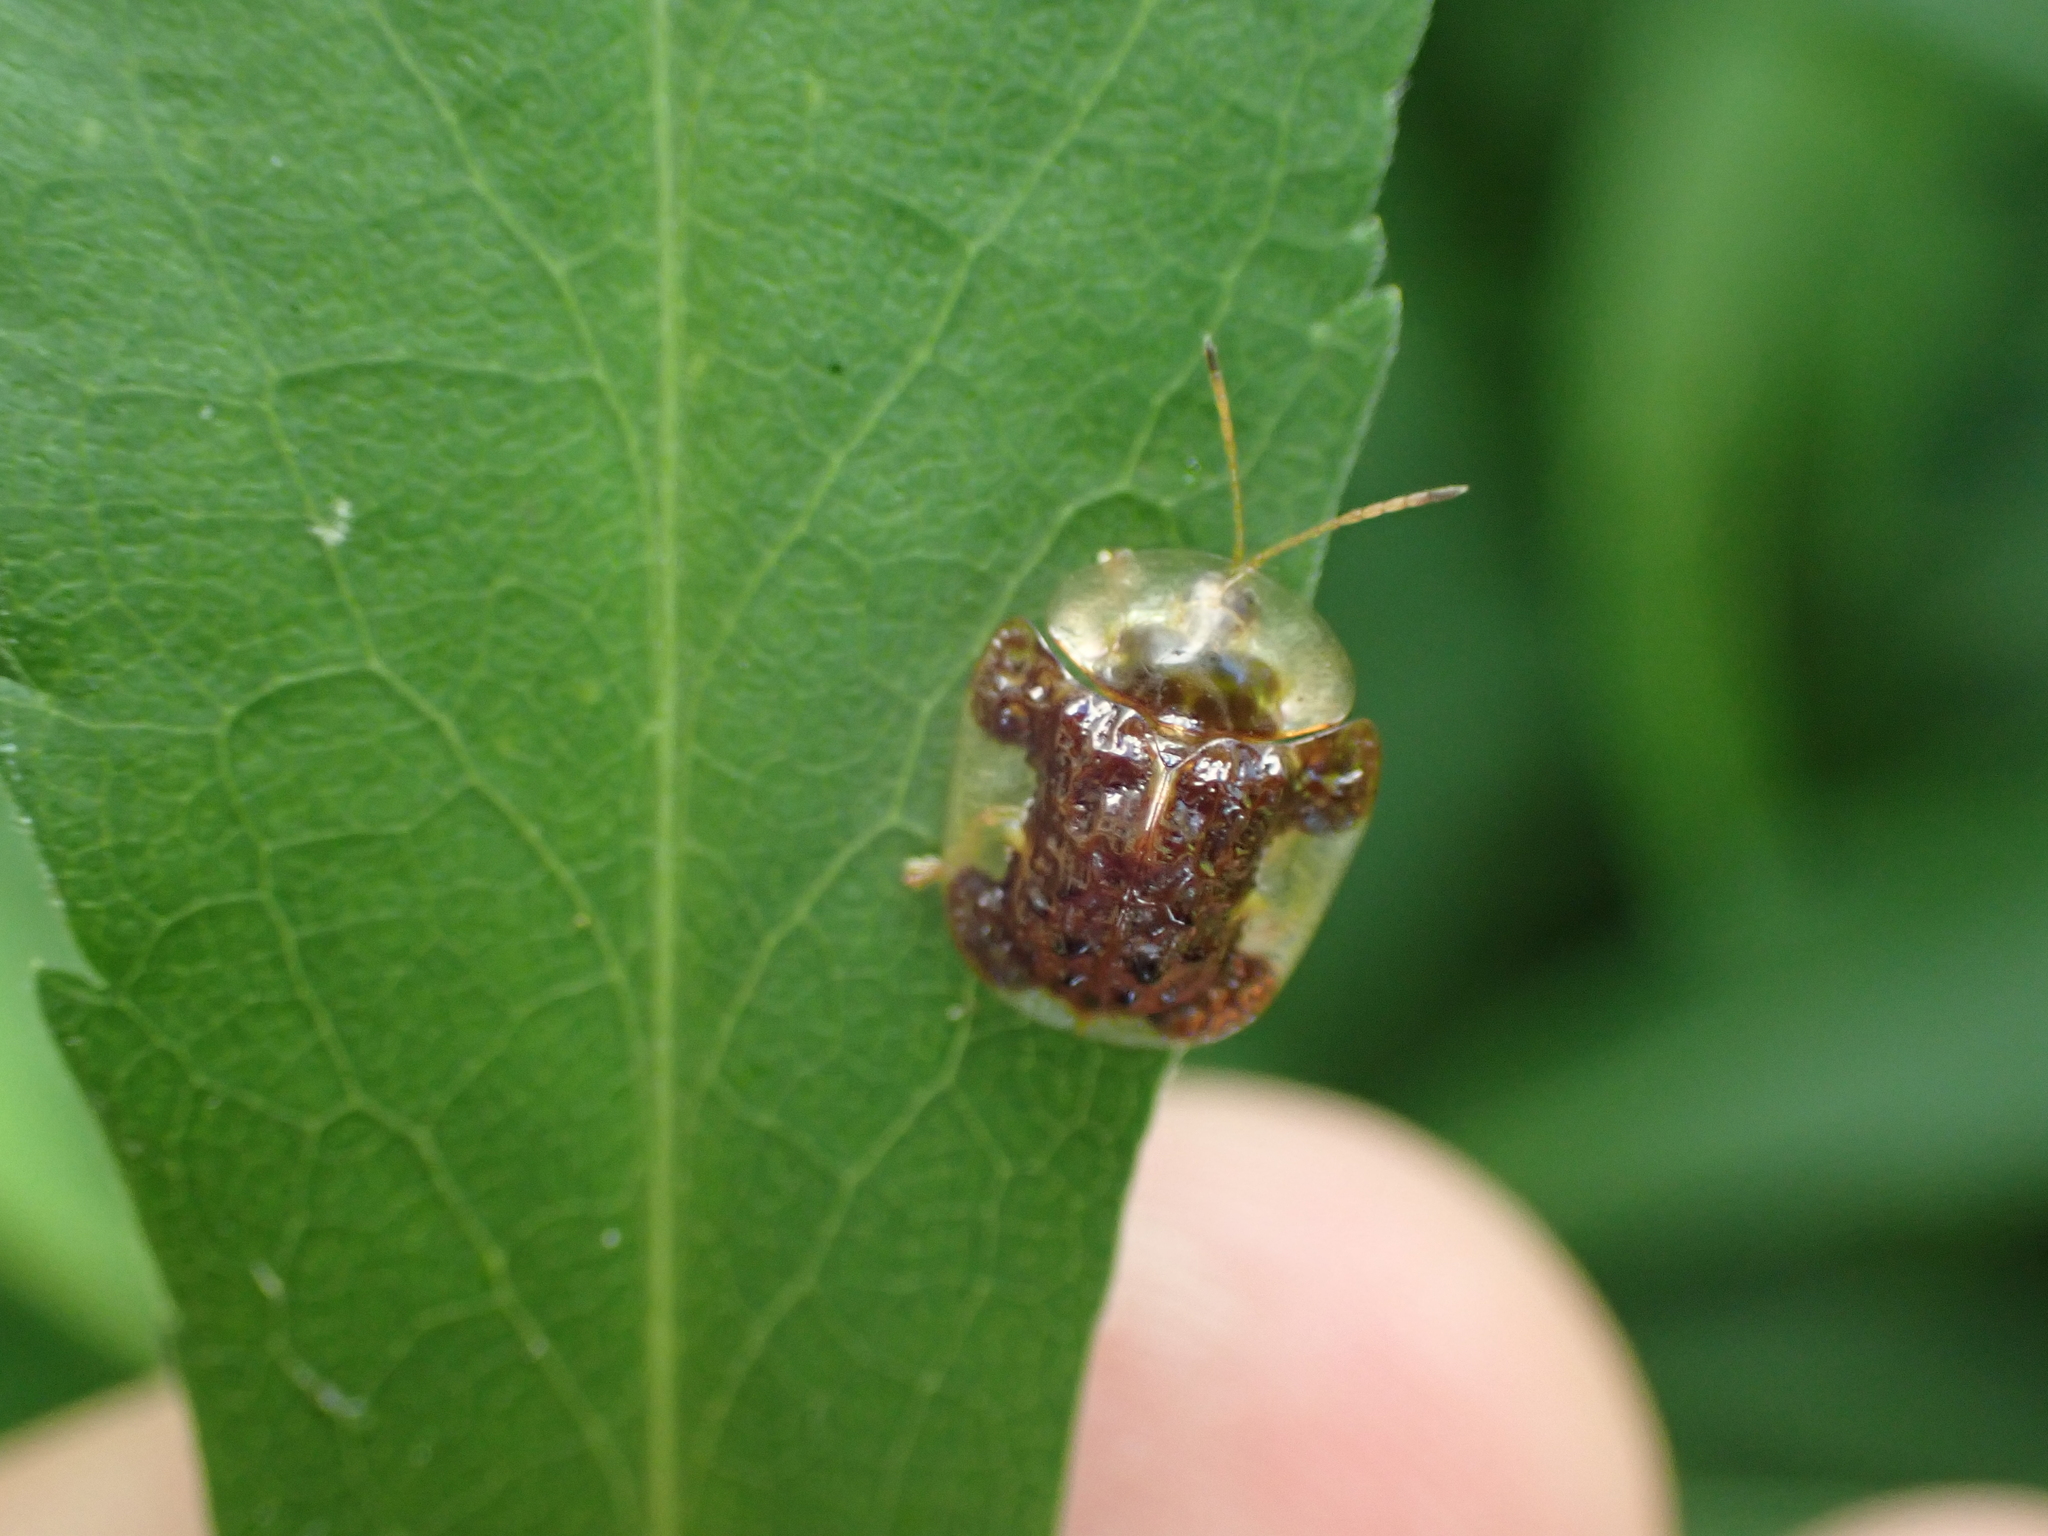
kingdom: Animalia
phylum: Arthropoda
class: Insecta
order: Coleoptera
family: Chrysomelidae
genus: Helocassis
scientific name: Helocassis clavata
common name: Clavate tortoise beetle
